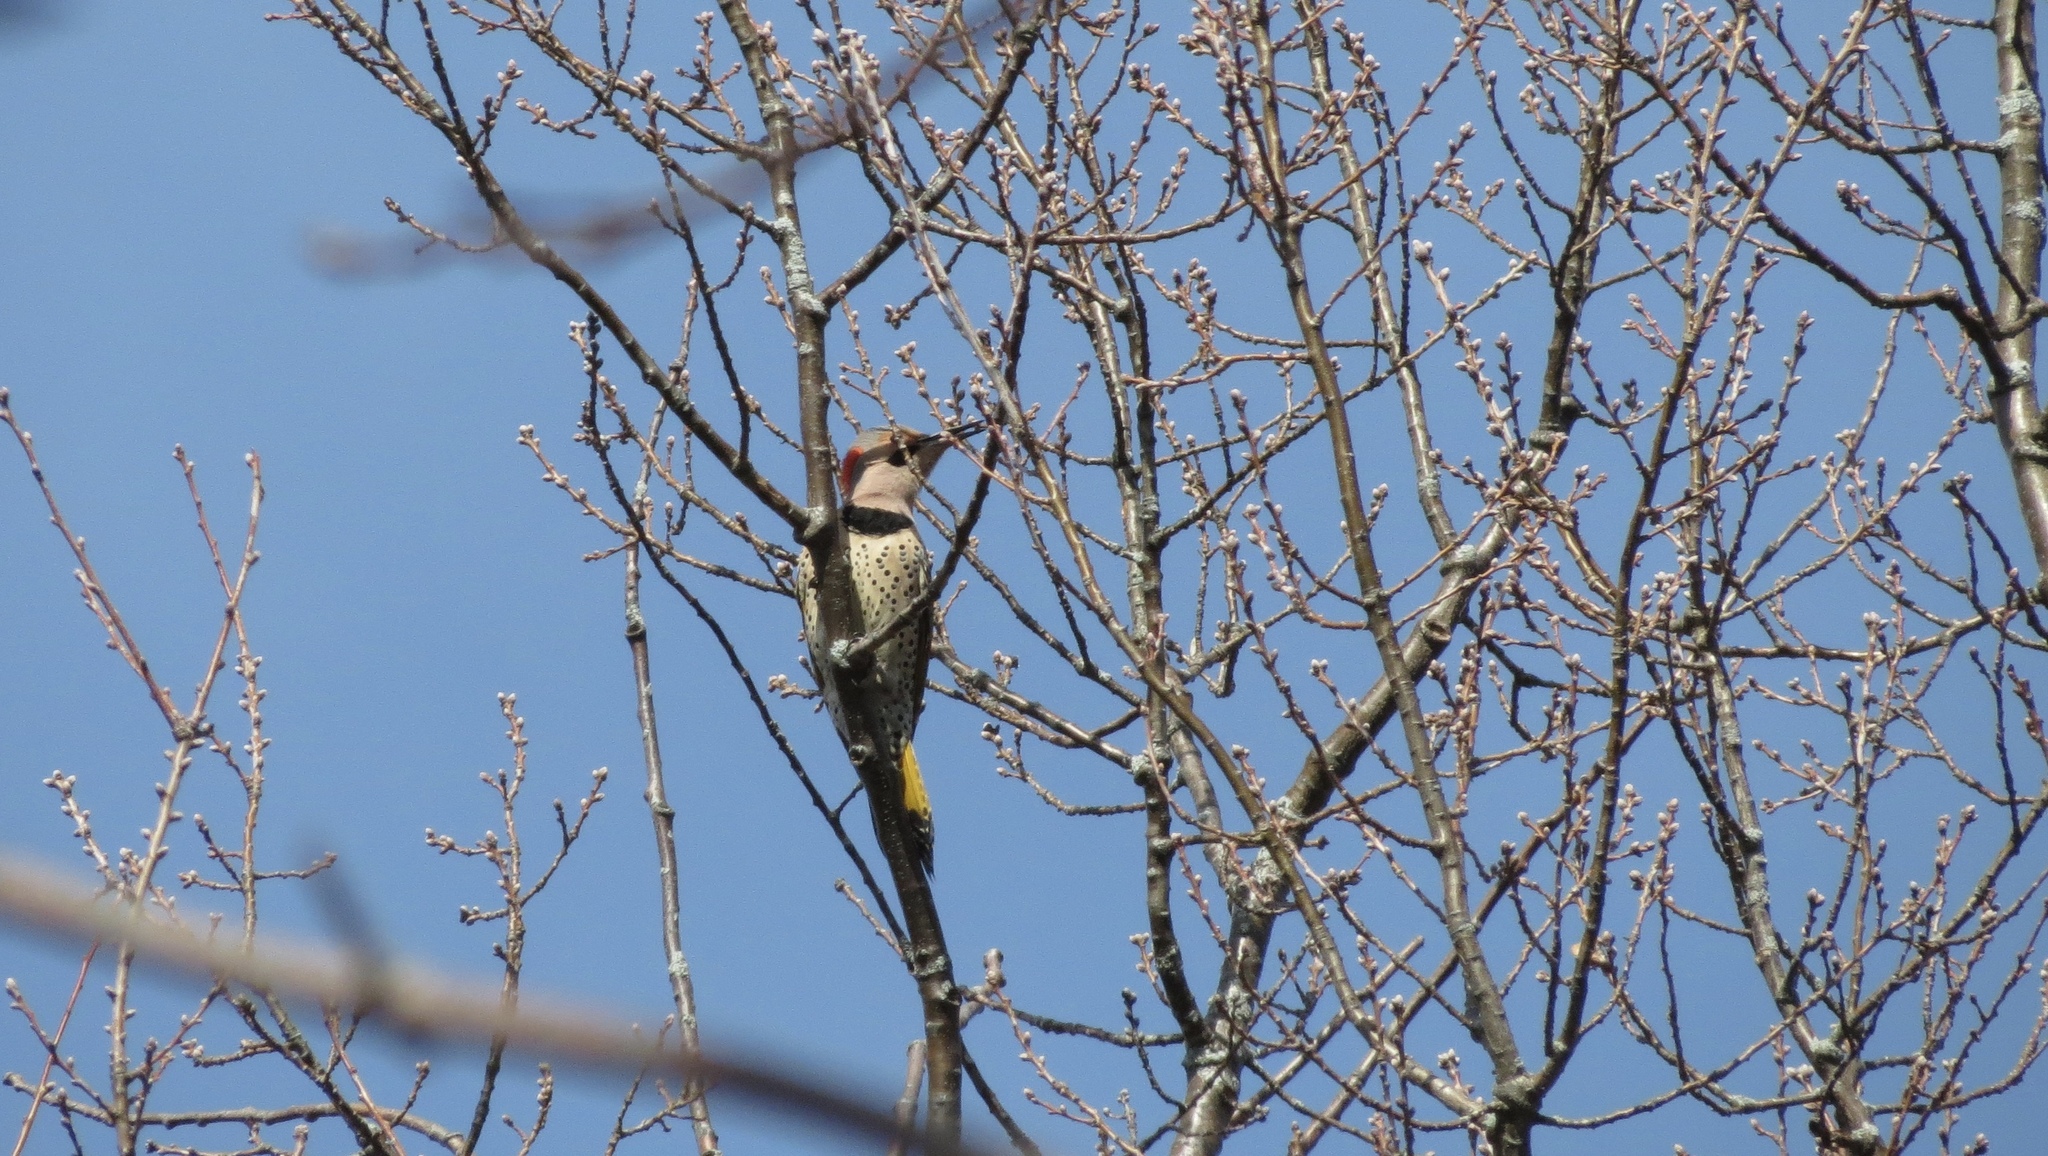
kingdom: Animalia
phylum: Chordata
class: Aves
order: Piciformes
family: Picidae
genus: Colaptes
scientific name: Colaptes auratus
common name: Northern flicker
